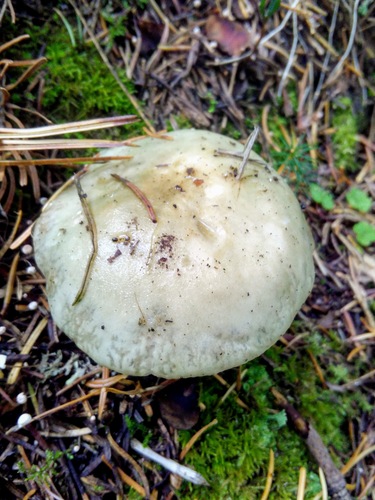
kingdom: Fungi
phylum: Basidiomycota
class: Agaricomycetes
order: Russulales
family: Russulaceae
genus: Russula
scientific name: Russula aeruginea
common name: Green brittlegill
